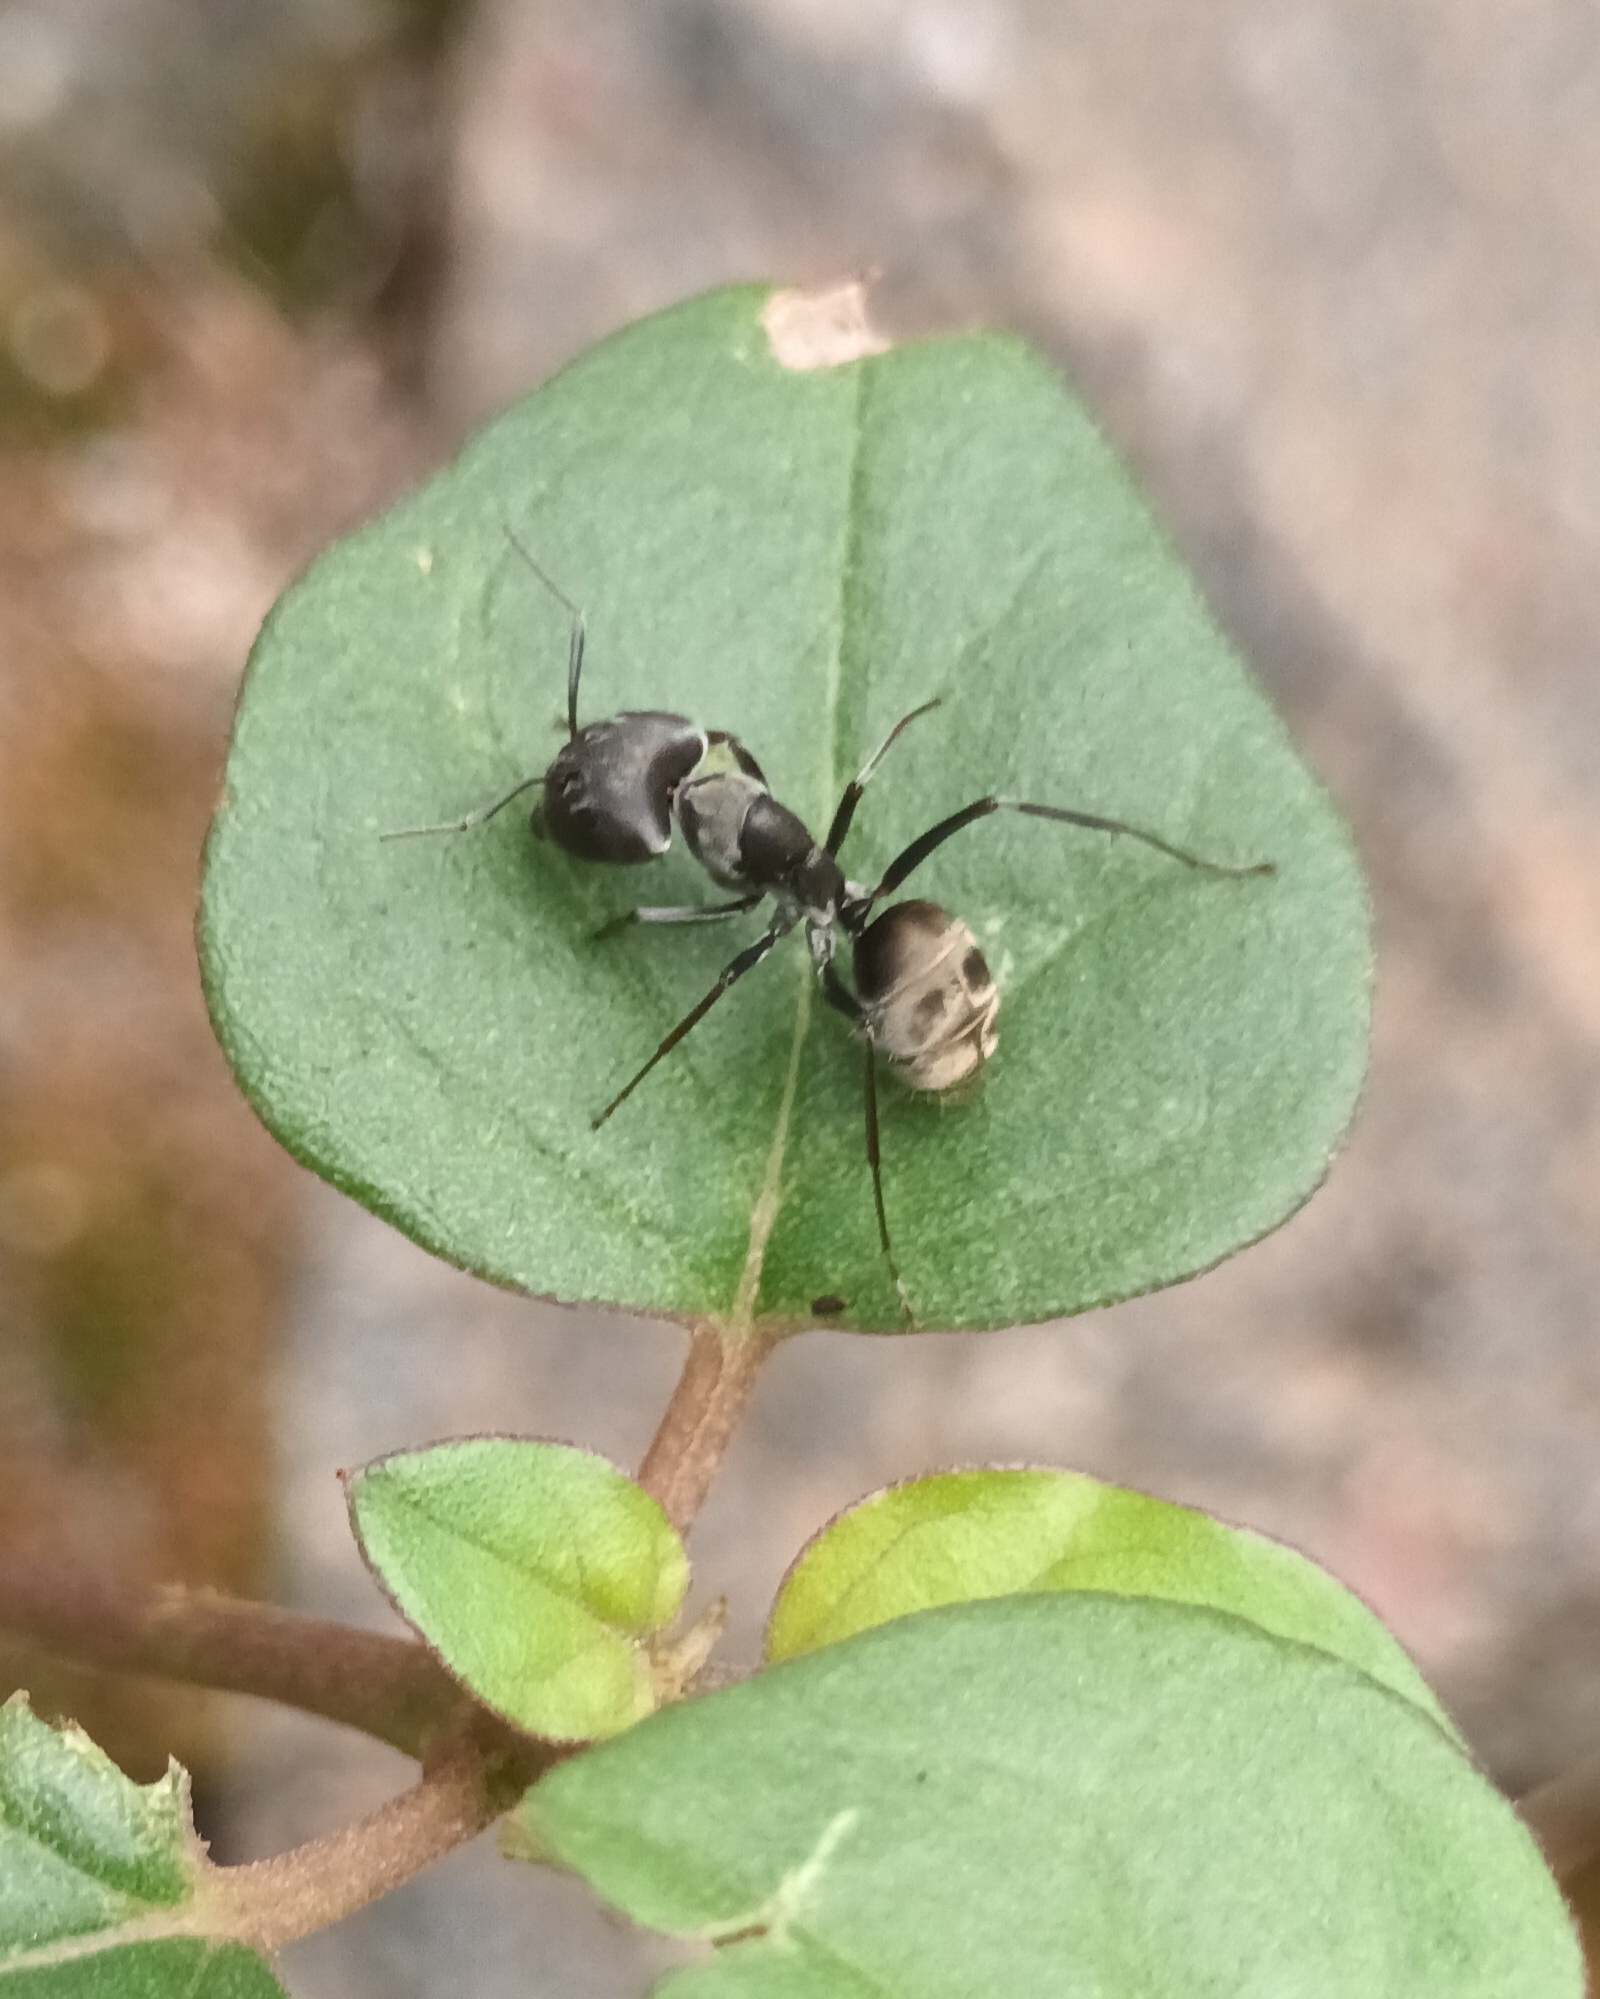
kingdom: Animalia
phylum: Arthropoda
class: Insecta
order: Hymenoptera
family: Formicidae
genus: Camponotus
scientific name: Camponotus parius
